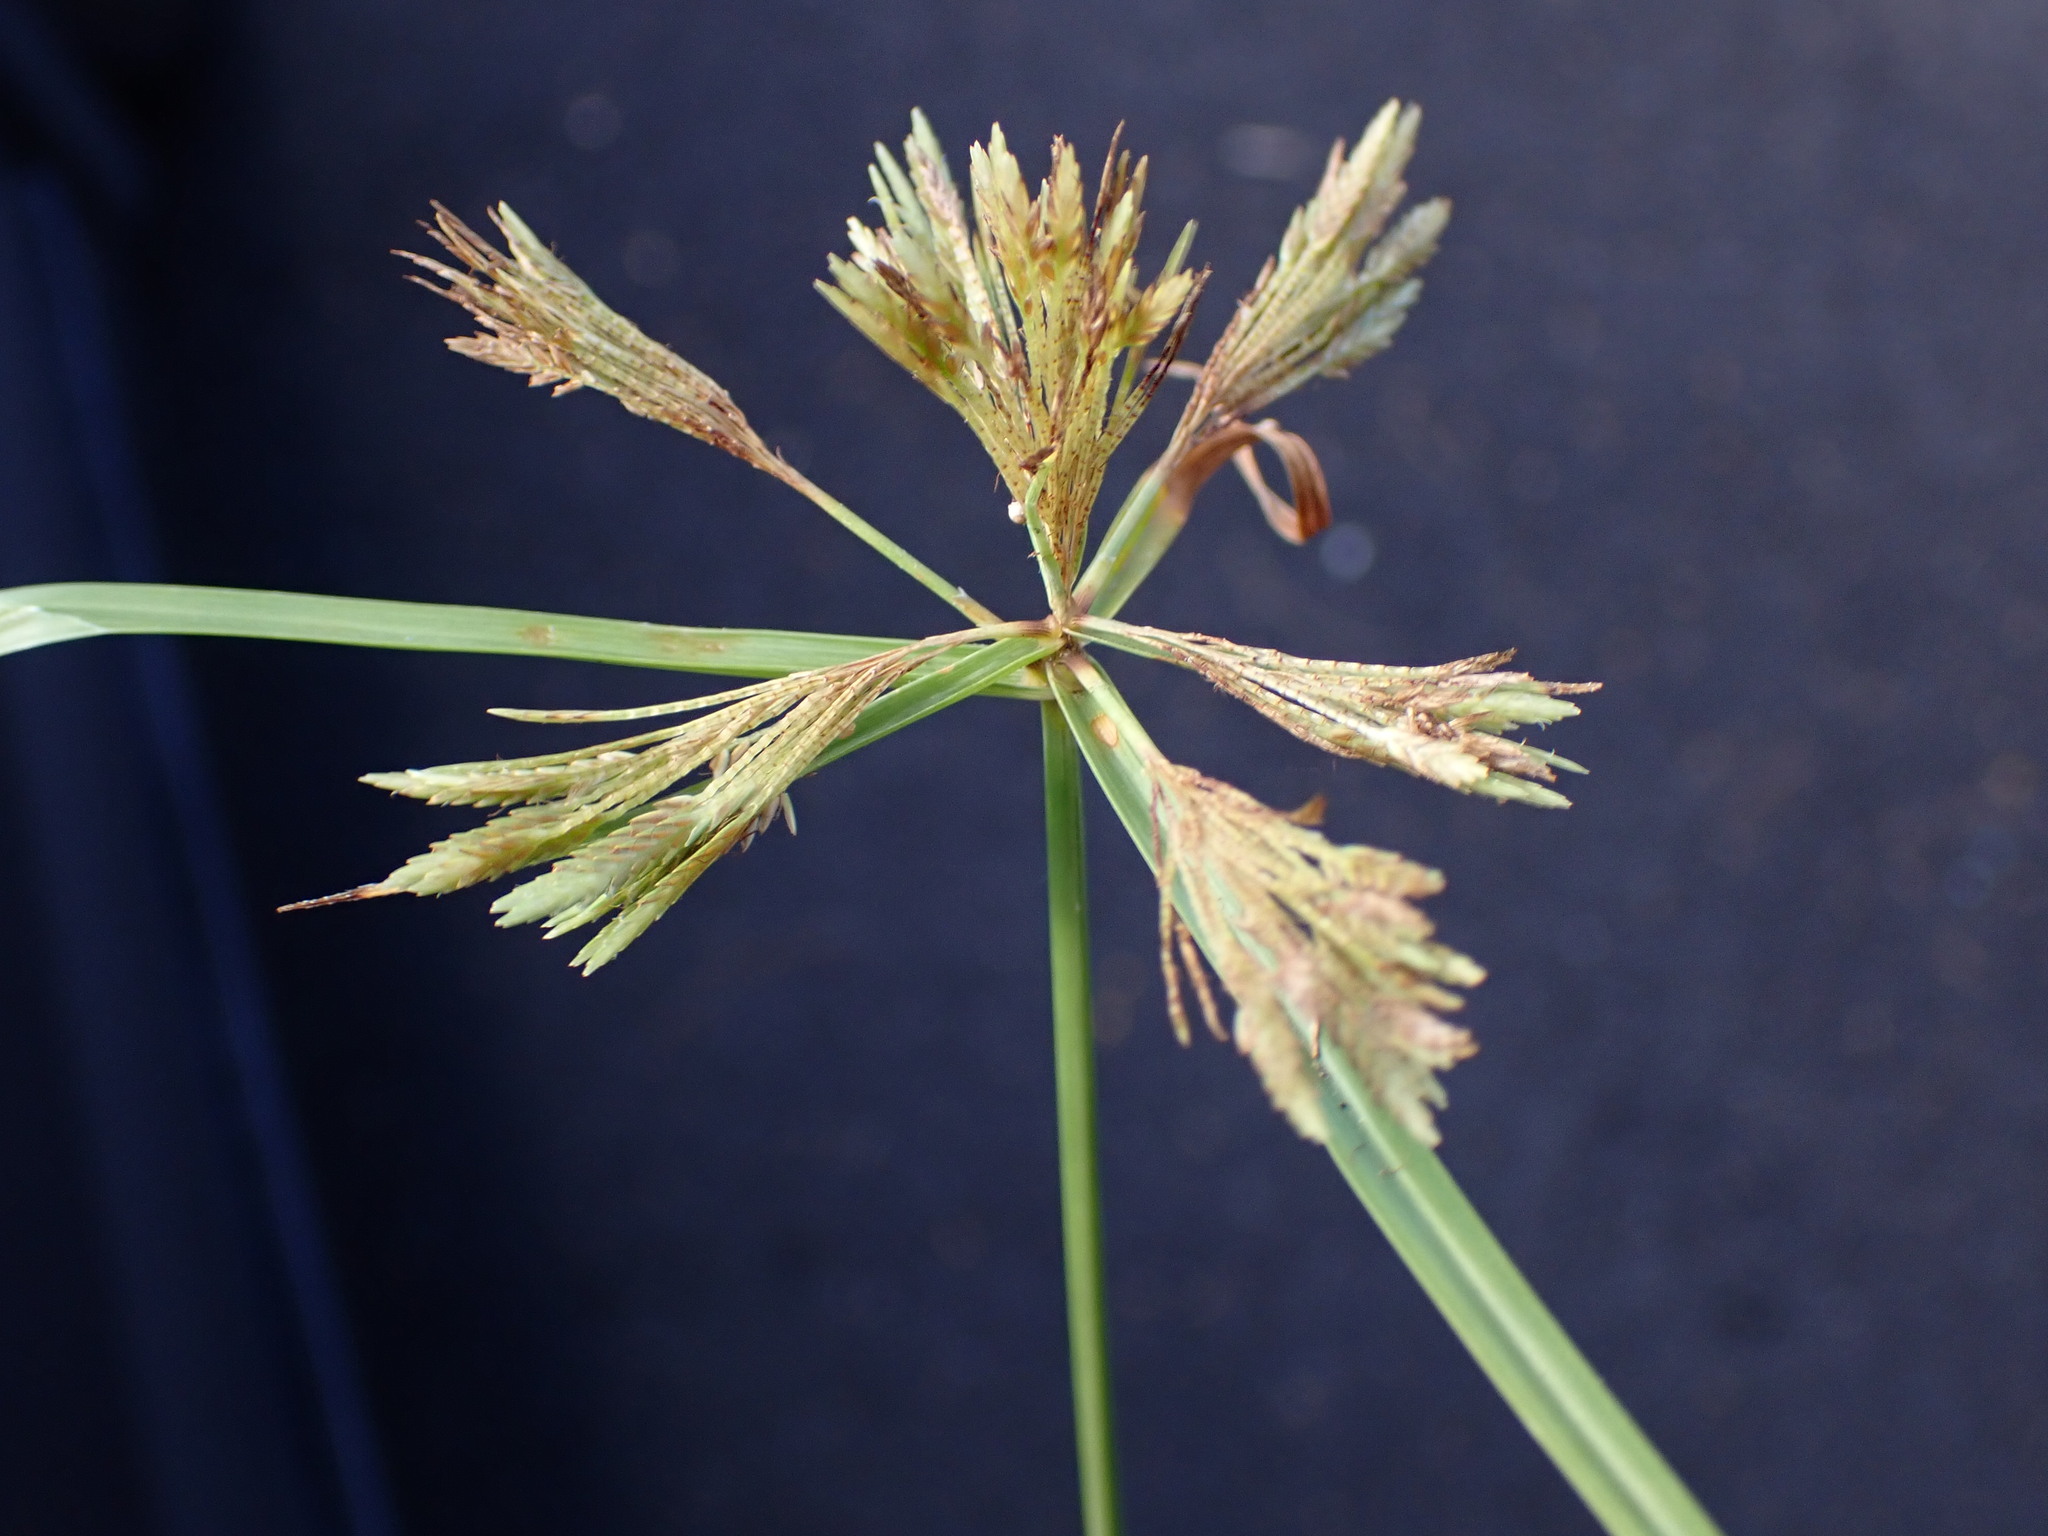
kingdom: Plantae
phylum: Tracheophyta
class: Liliopsida
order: Poales
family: Cyperaceae
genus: Cyperus
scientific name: Cyperus polystachyos
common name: Bunchy flat sedge
